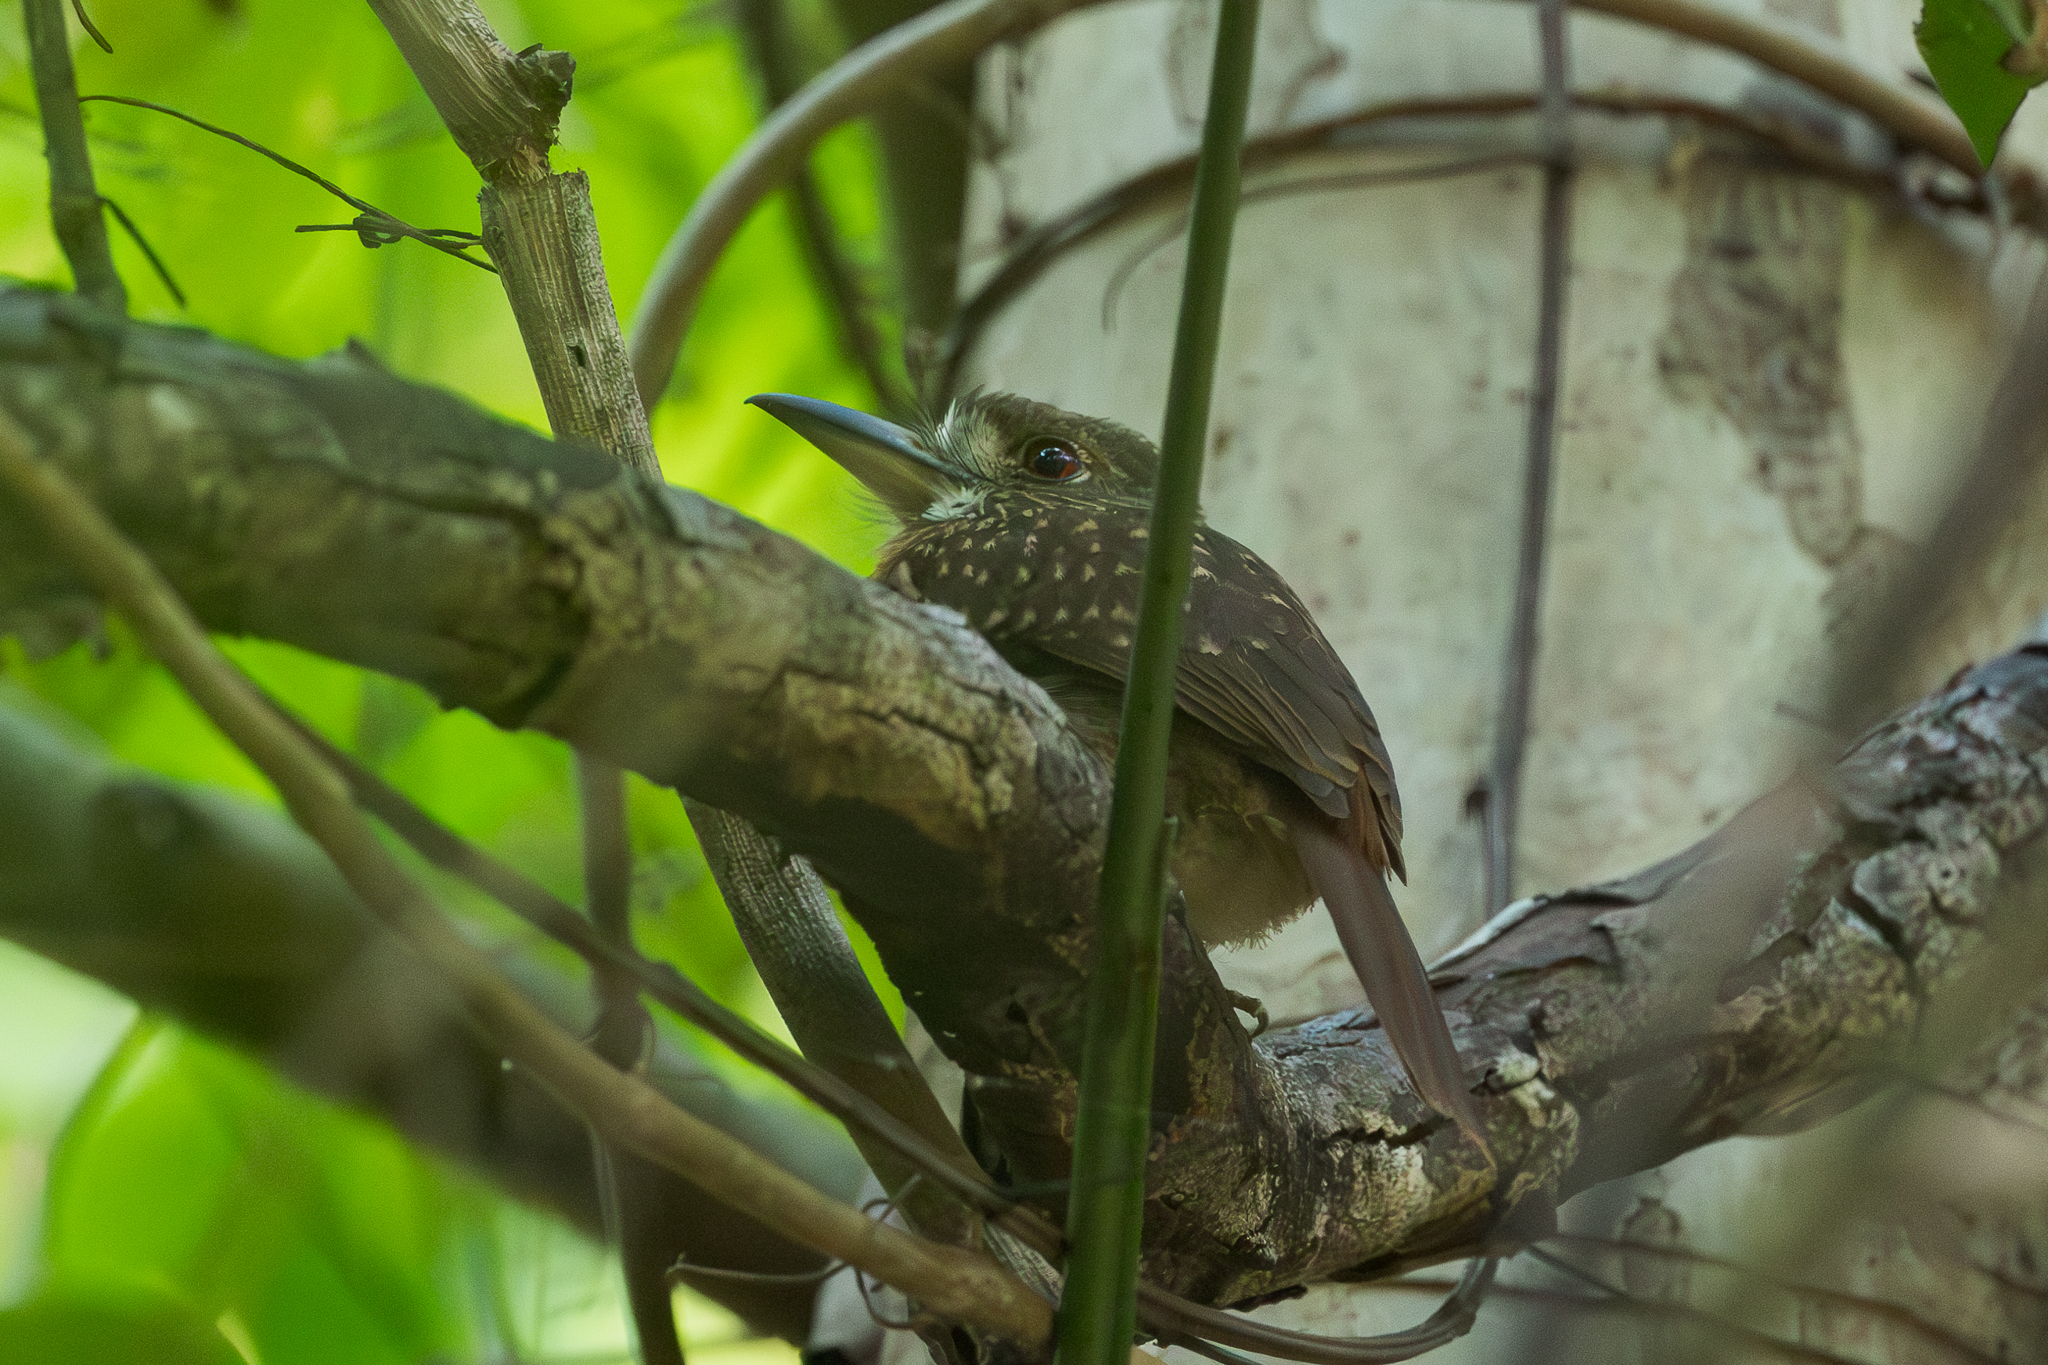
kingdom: Animalia
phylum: Chordata
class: Aves
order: Piciformes
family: Bucconidae
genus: Malacoptila
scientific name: Malacoptila panamensis
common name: White-whiskered puffbird
